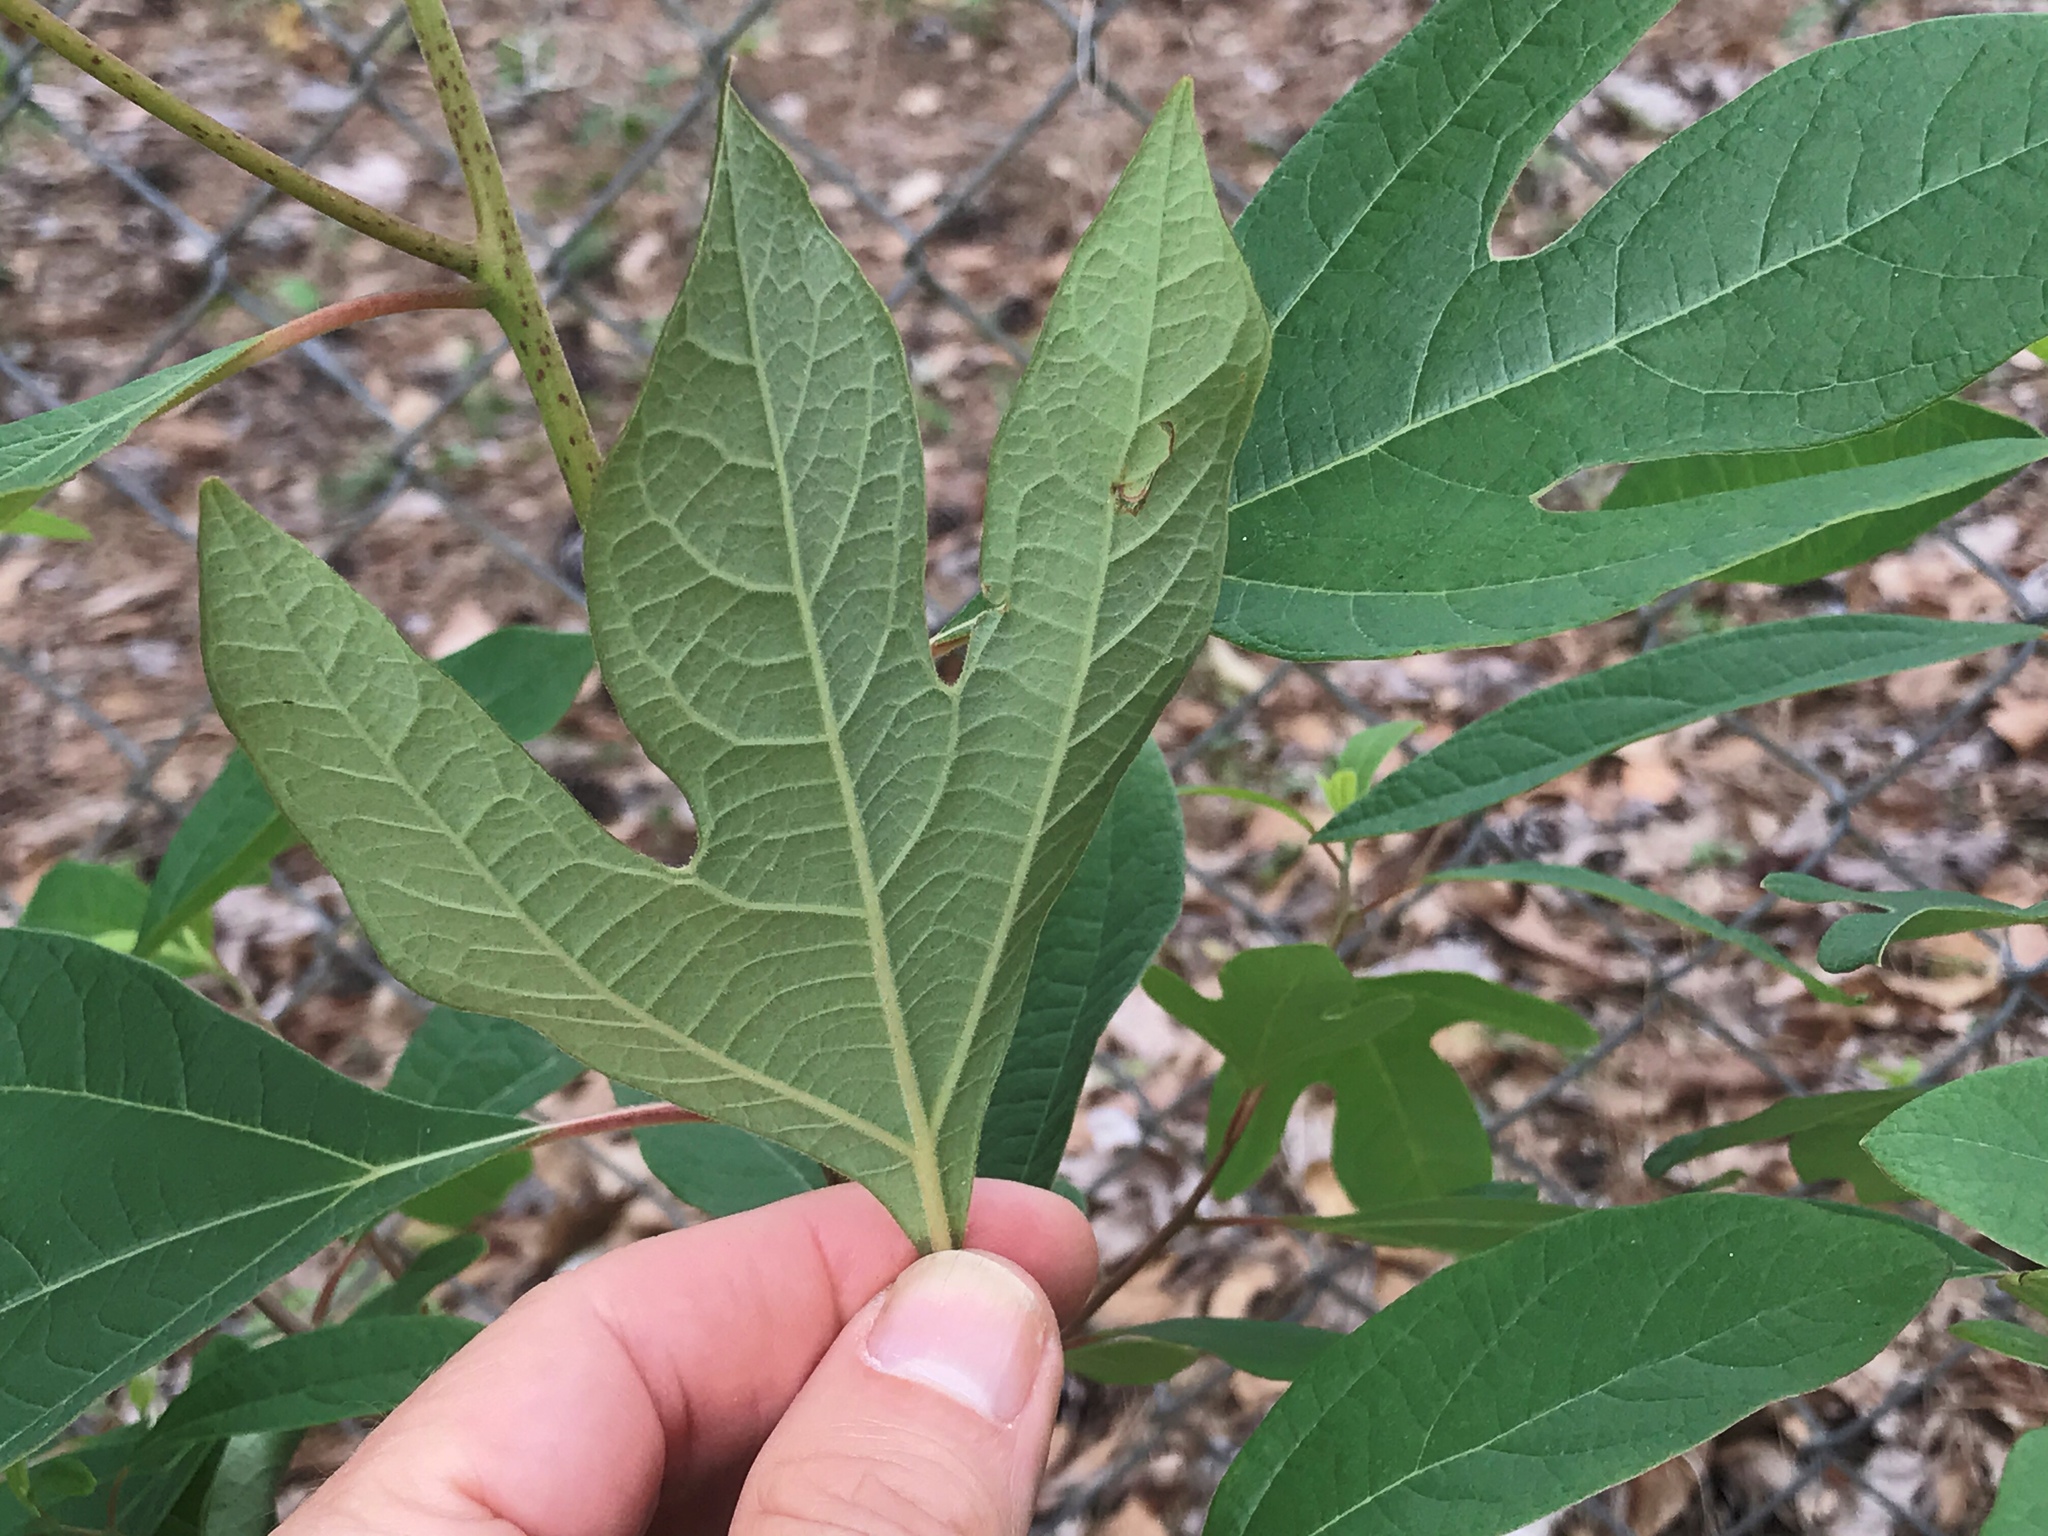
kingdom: Plantae
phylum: Tracheophyta
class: Magnoliopsida
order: Laurales
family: Lauraceae
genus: Sassafras
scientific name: Sassafras albidum
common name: Sassafras
